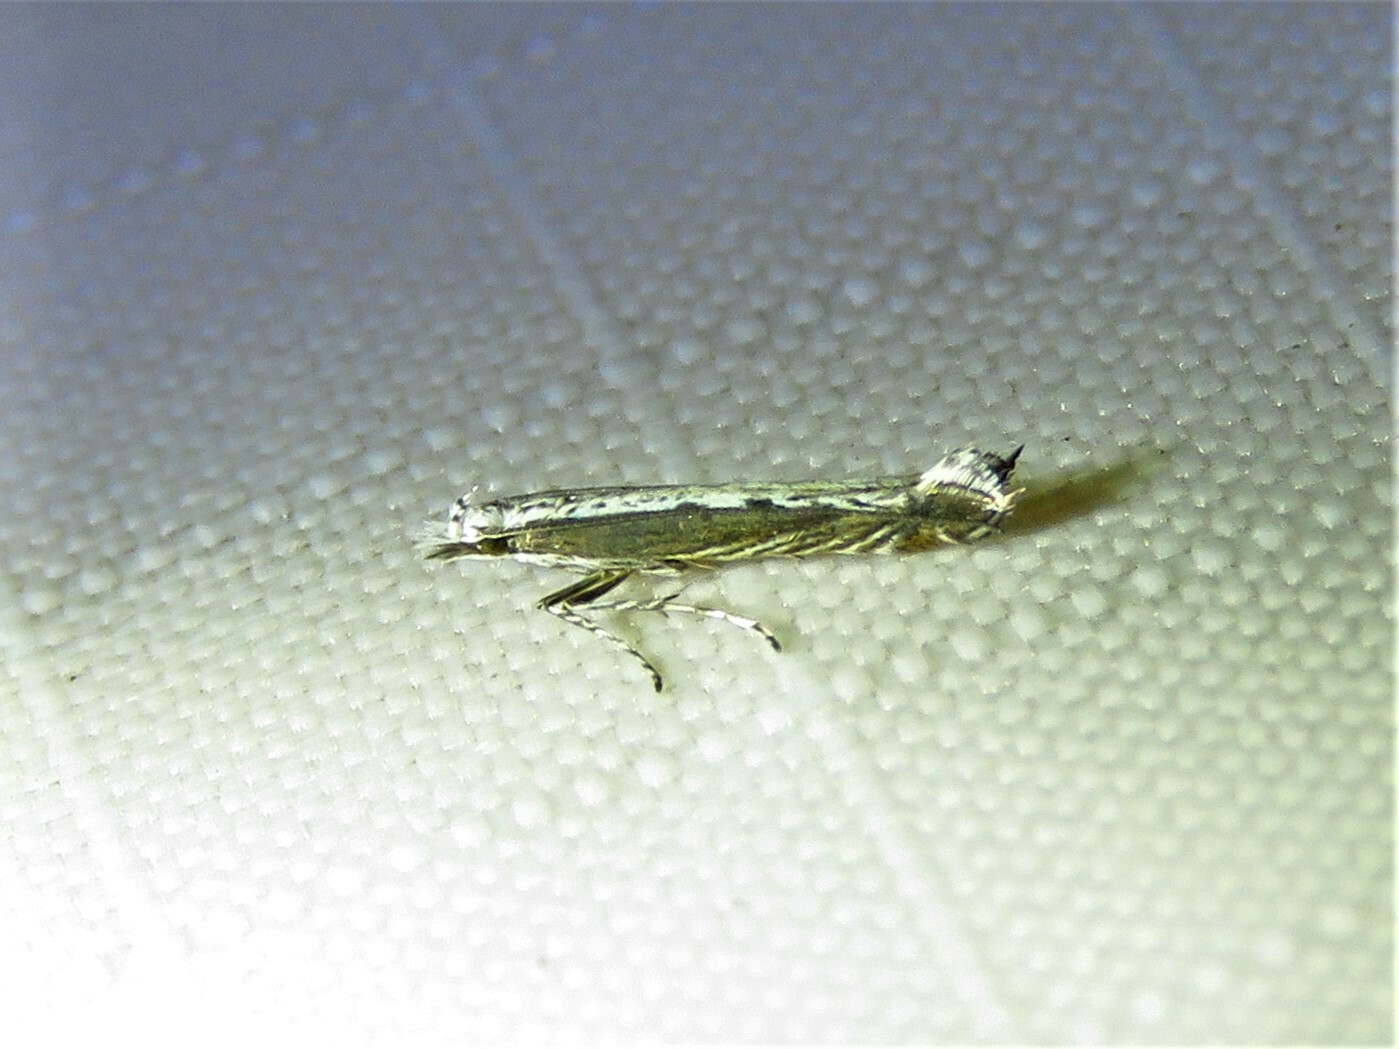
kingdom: Plantae
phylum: Rhodophyta
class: Florideophyceae
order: Gracilariales
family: Gracilariaceae
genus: Gracilaria
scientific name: Gracilaria
